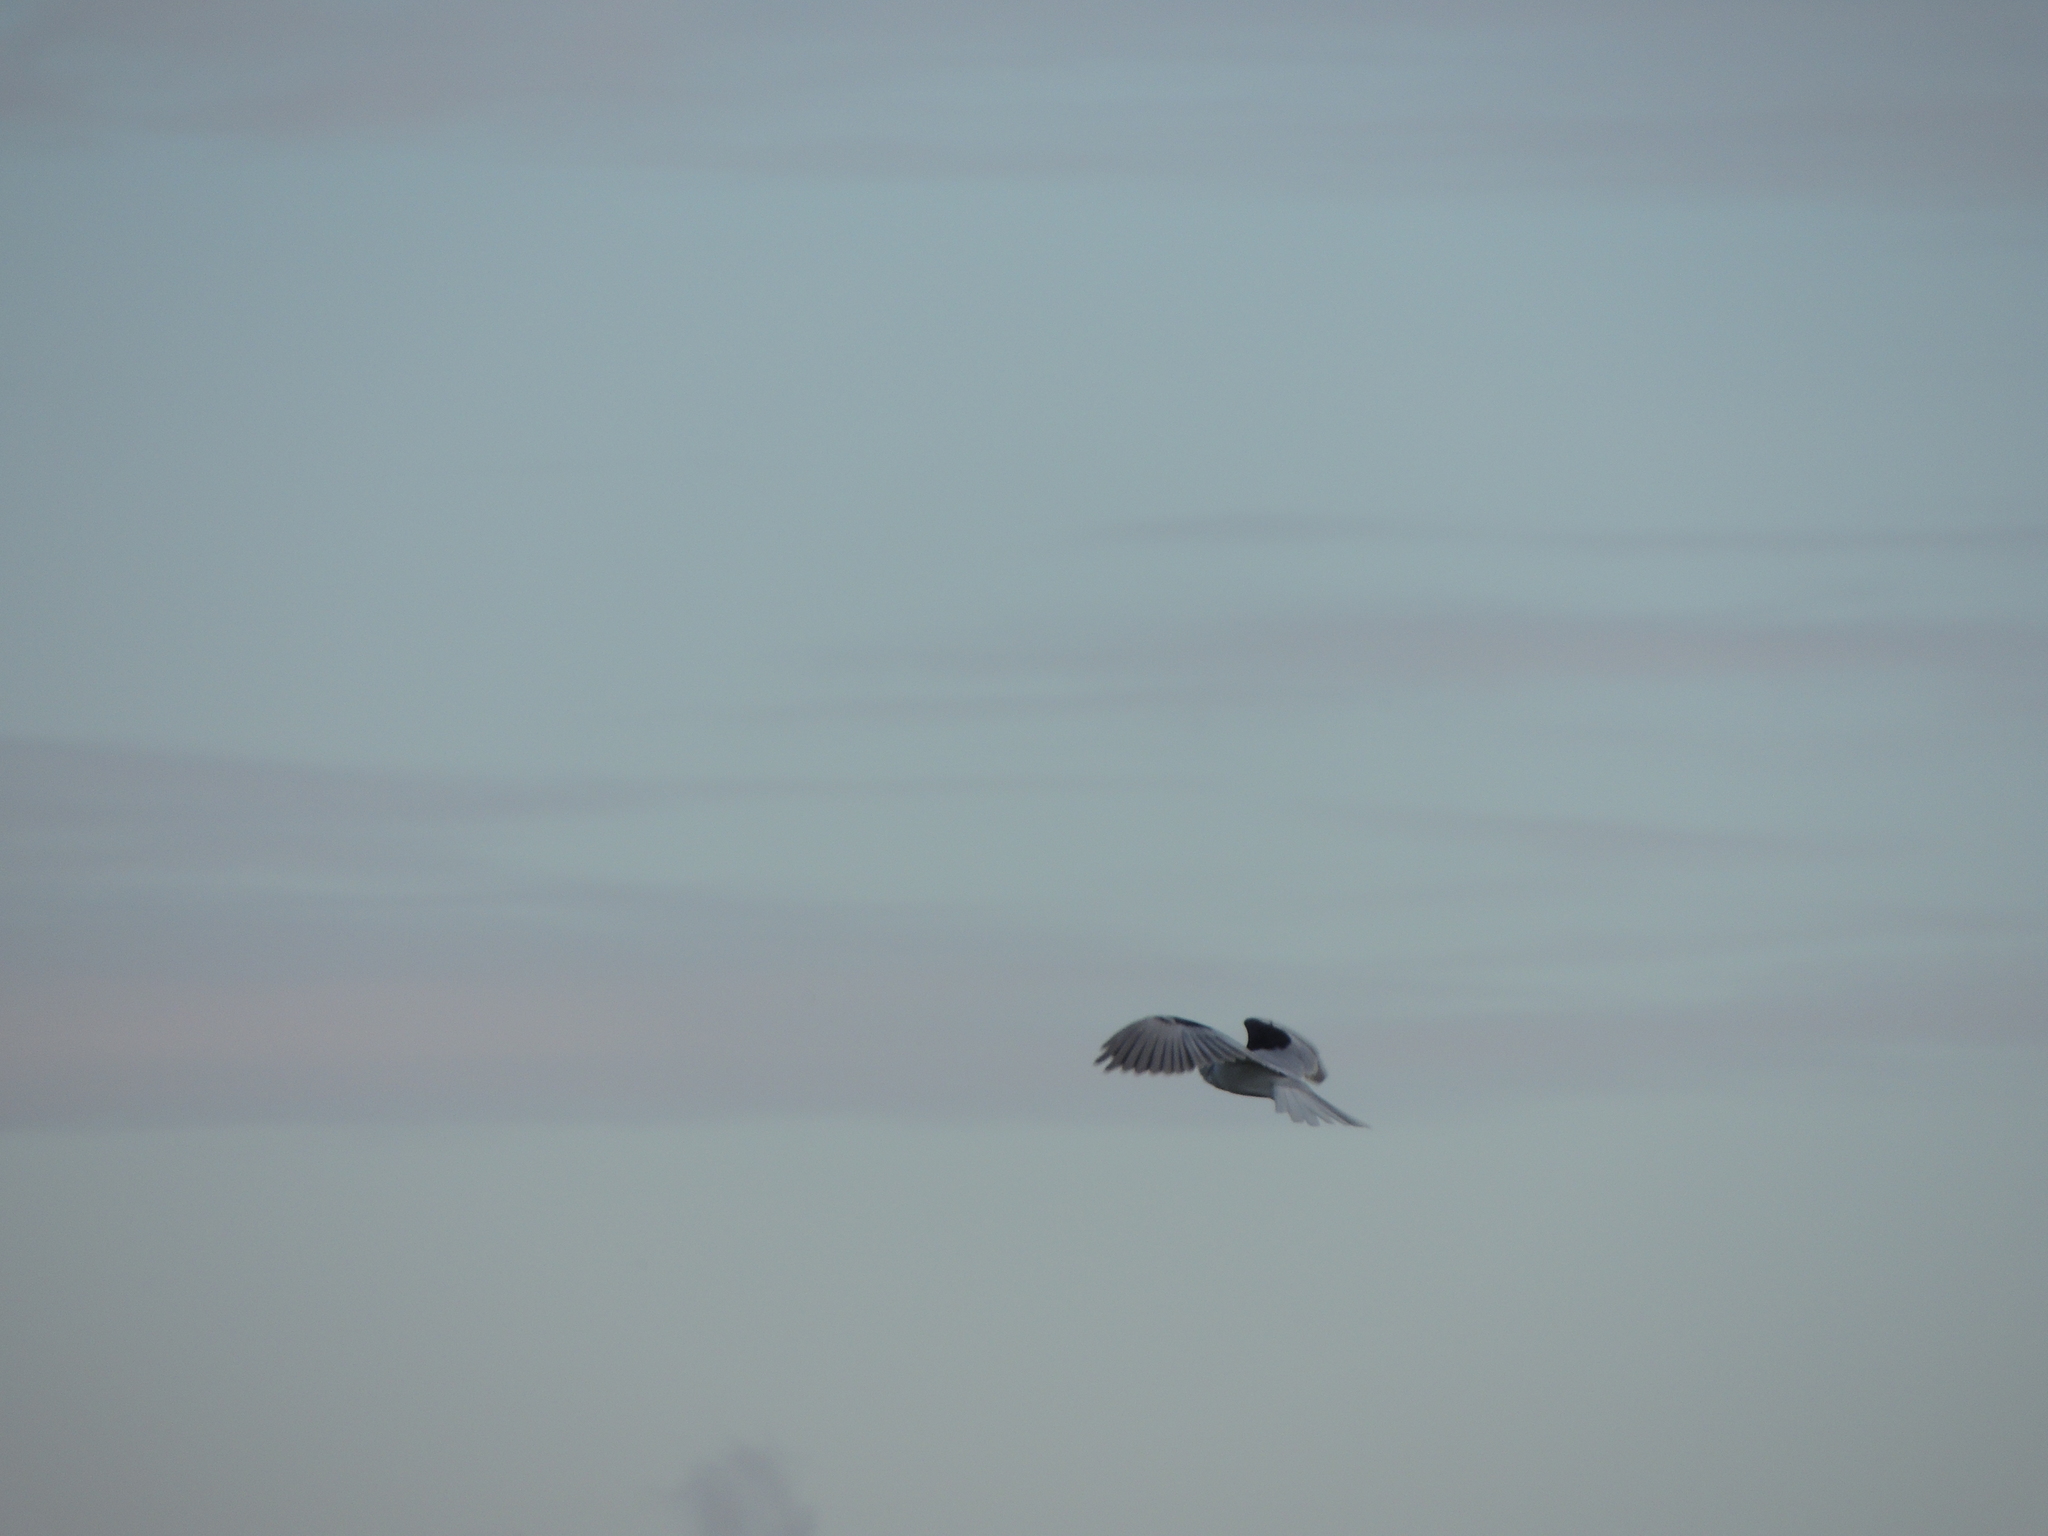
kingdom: Animalia
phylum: Chordata
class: Aves
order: Accipitriformes
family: Accipitridae
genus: Elanus
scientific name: Elanus leucurus
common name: White-tailed kite
